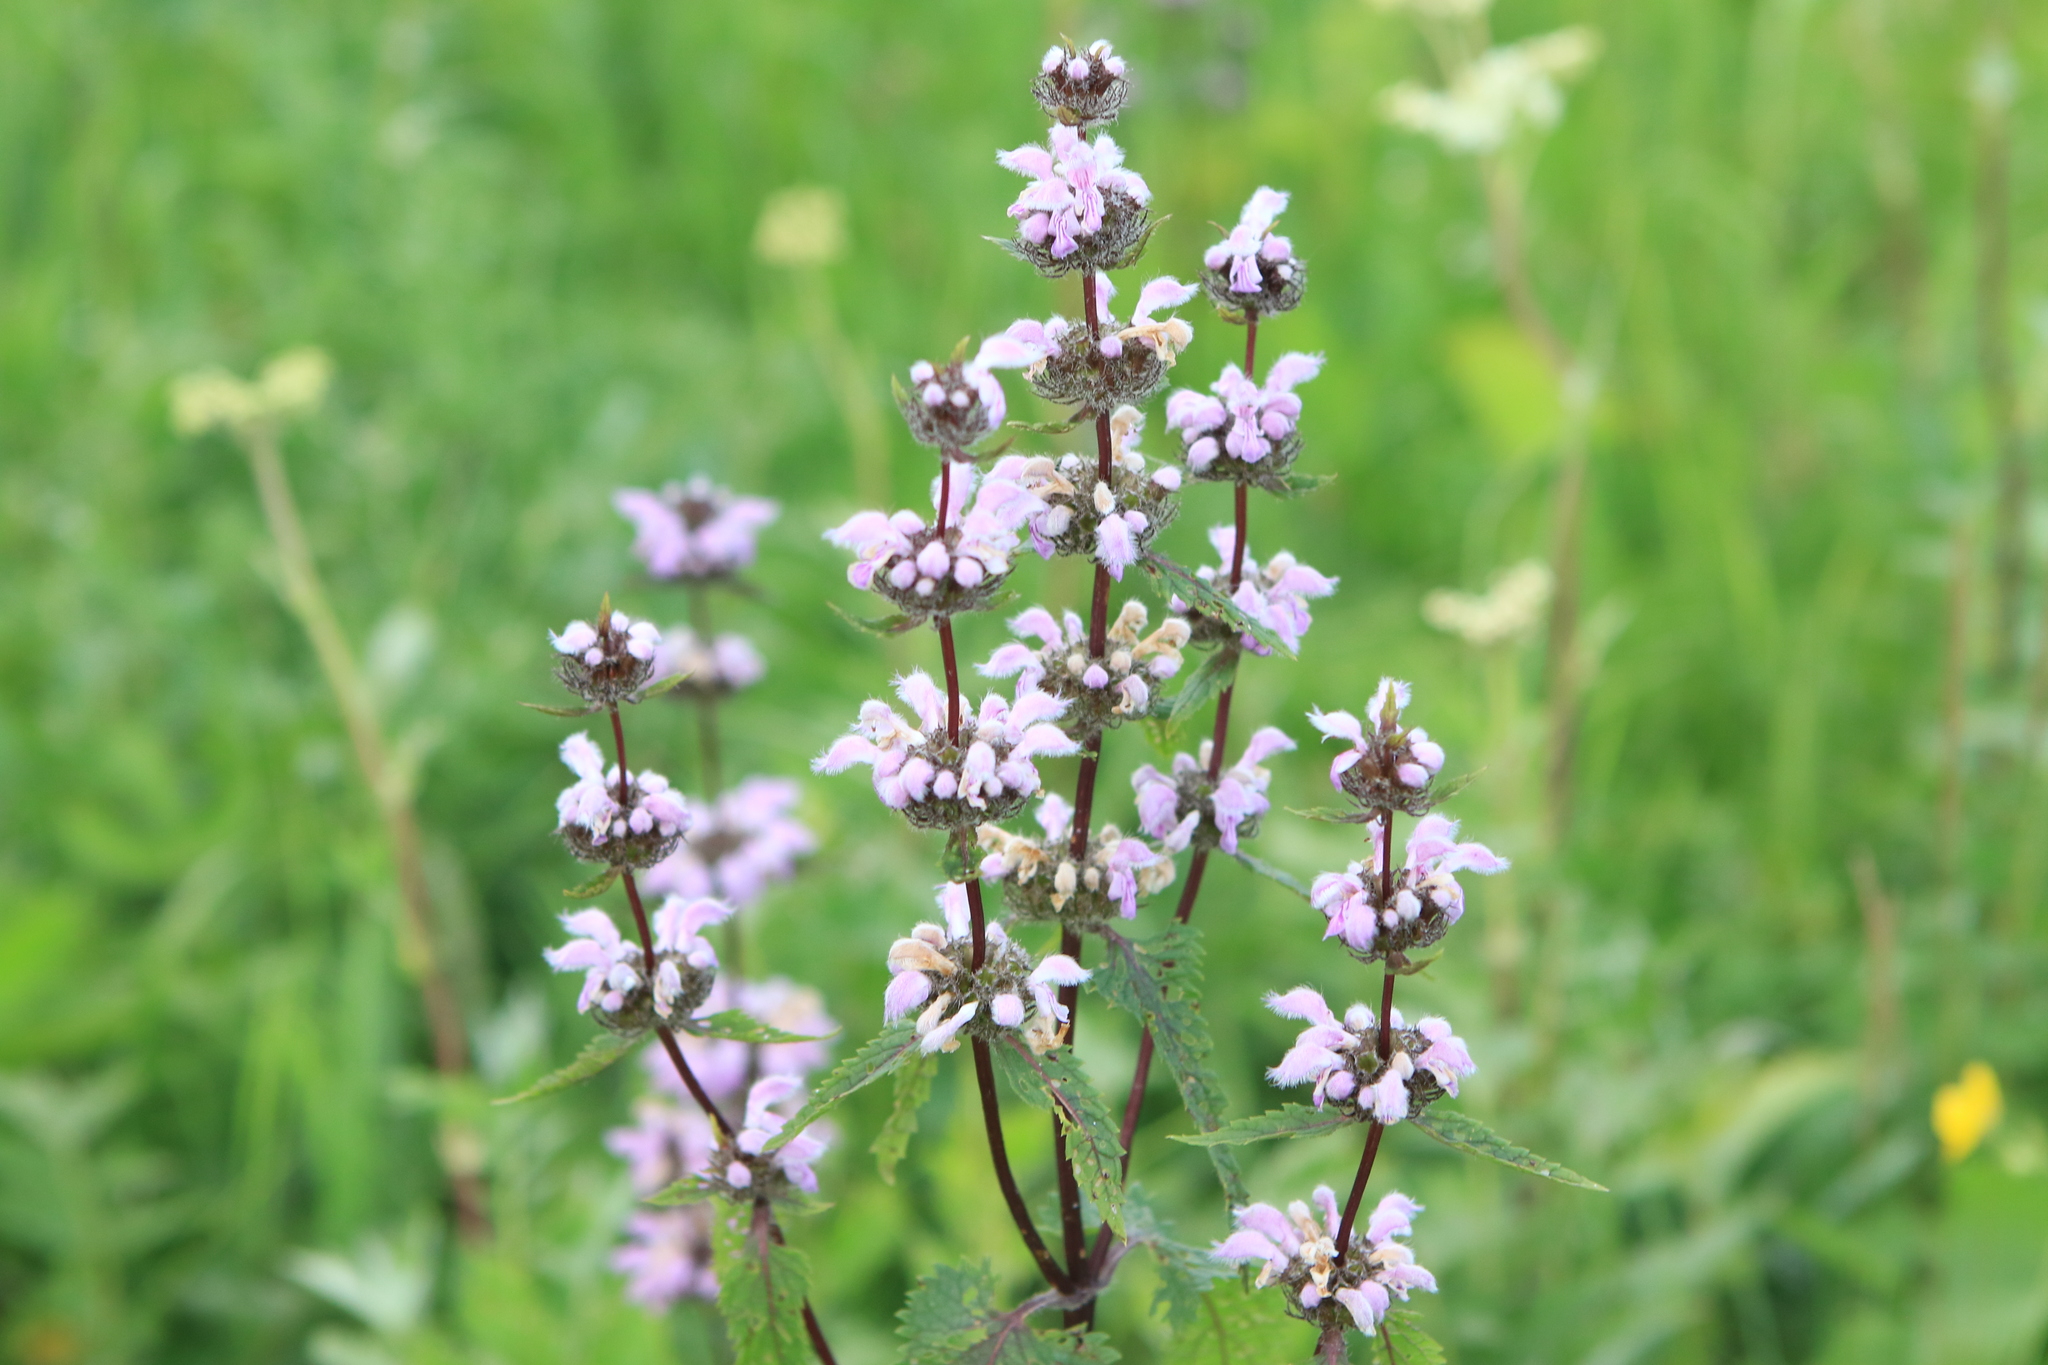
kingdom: Plantae
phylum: Tracheophyta
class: Magnoliopsida
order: Lamiales
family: Lamiaceae
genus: Phlomoides
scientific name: Phlomoides tuberosa
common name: Tuberous jerusalem sage
